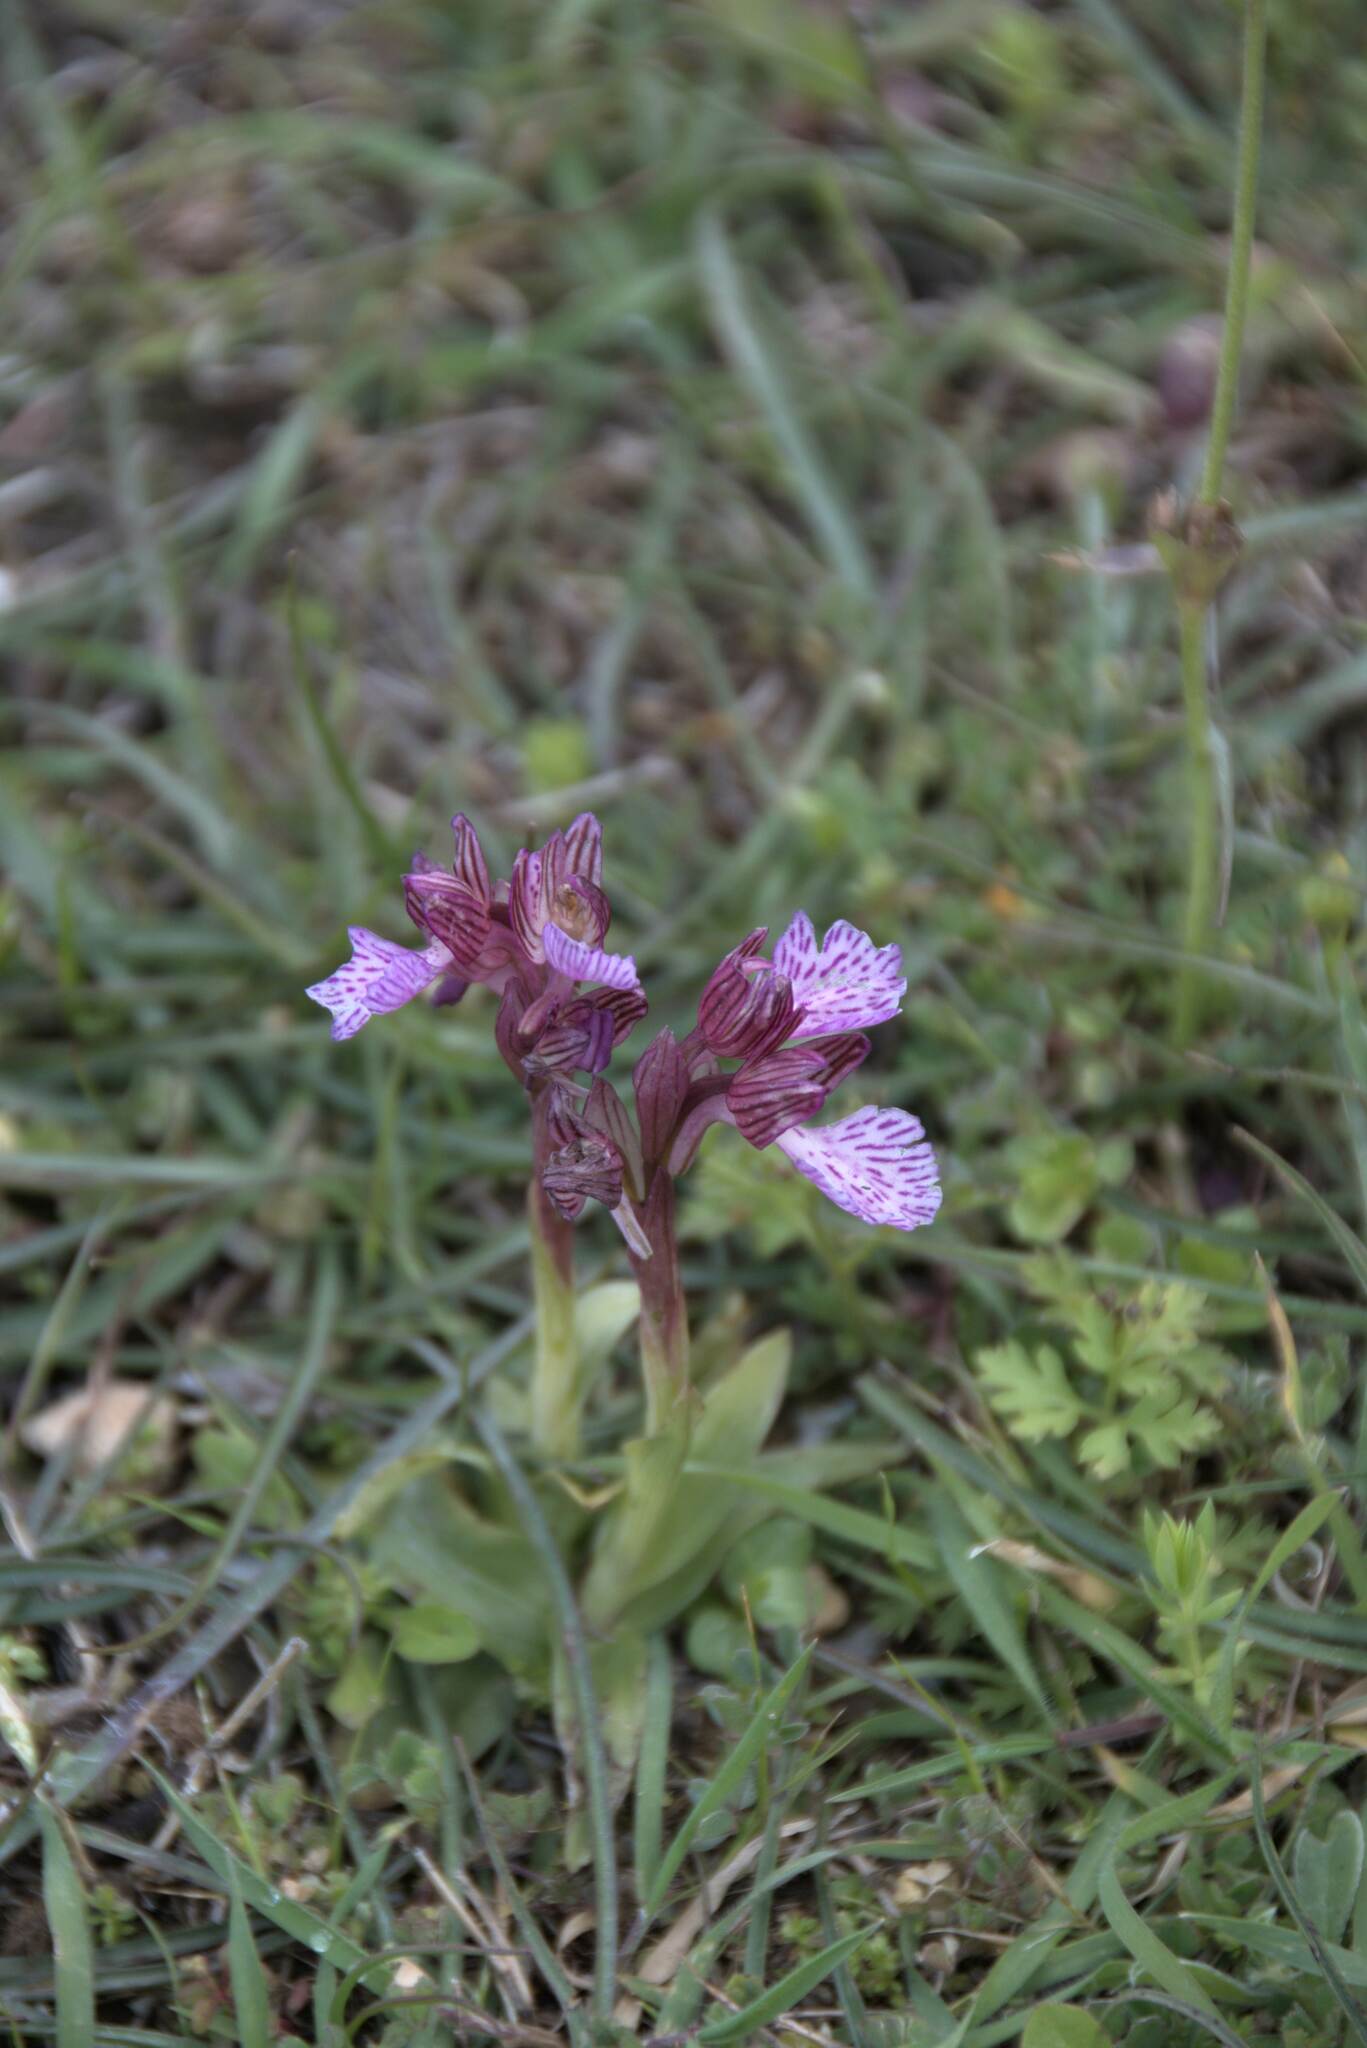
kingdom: Plantae
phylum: Tracheophyta
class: Liliopsida
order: Asparagales
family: Orchidaceae
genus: Anacamptis
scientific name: Anacamptis papilionacea
